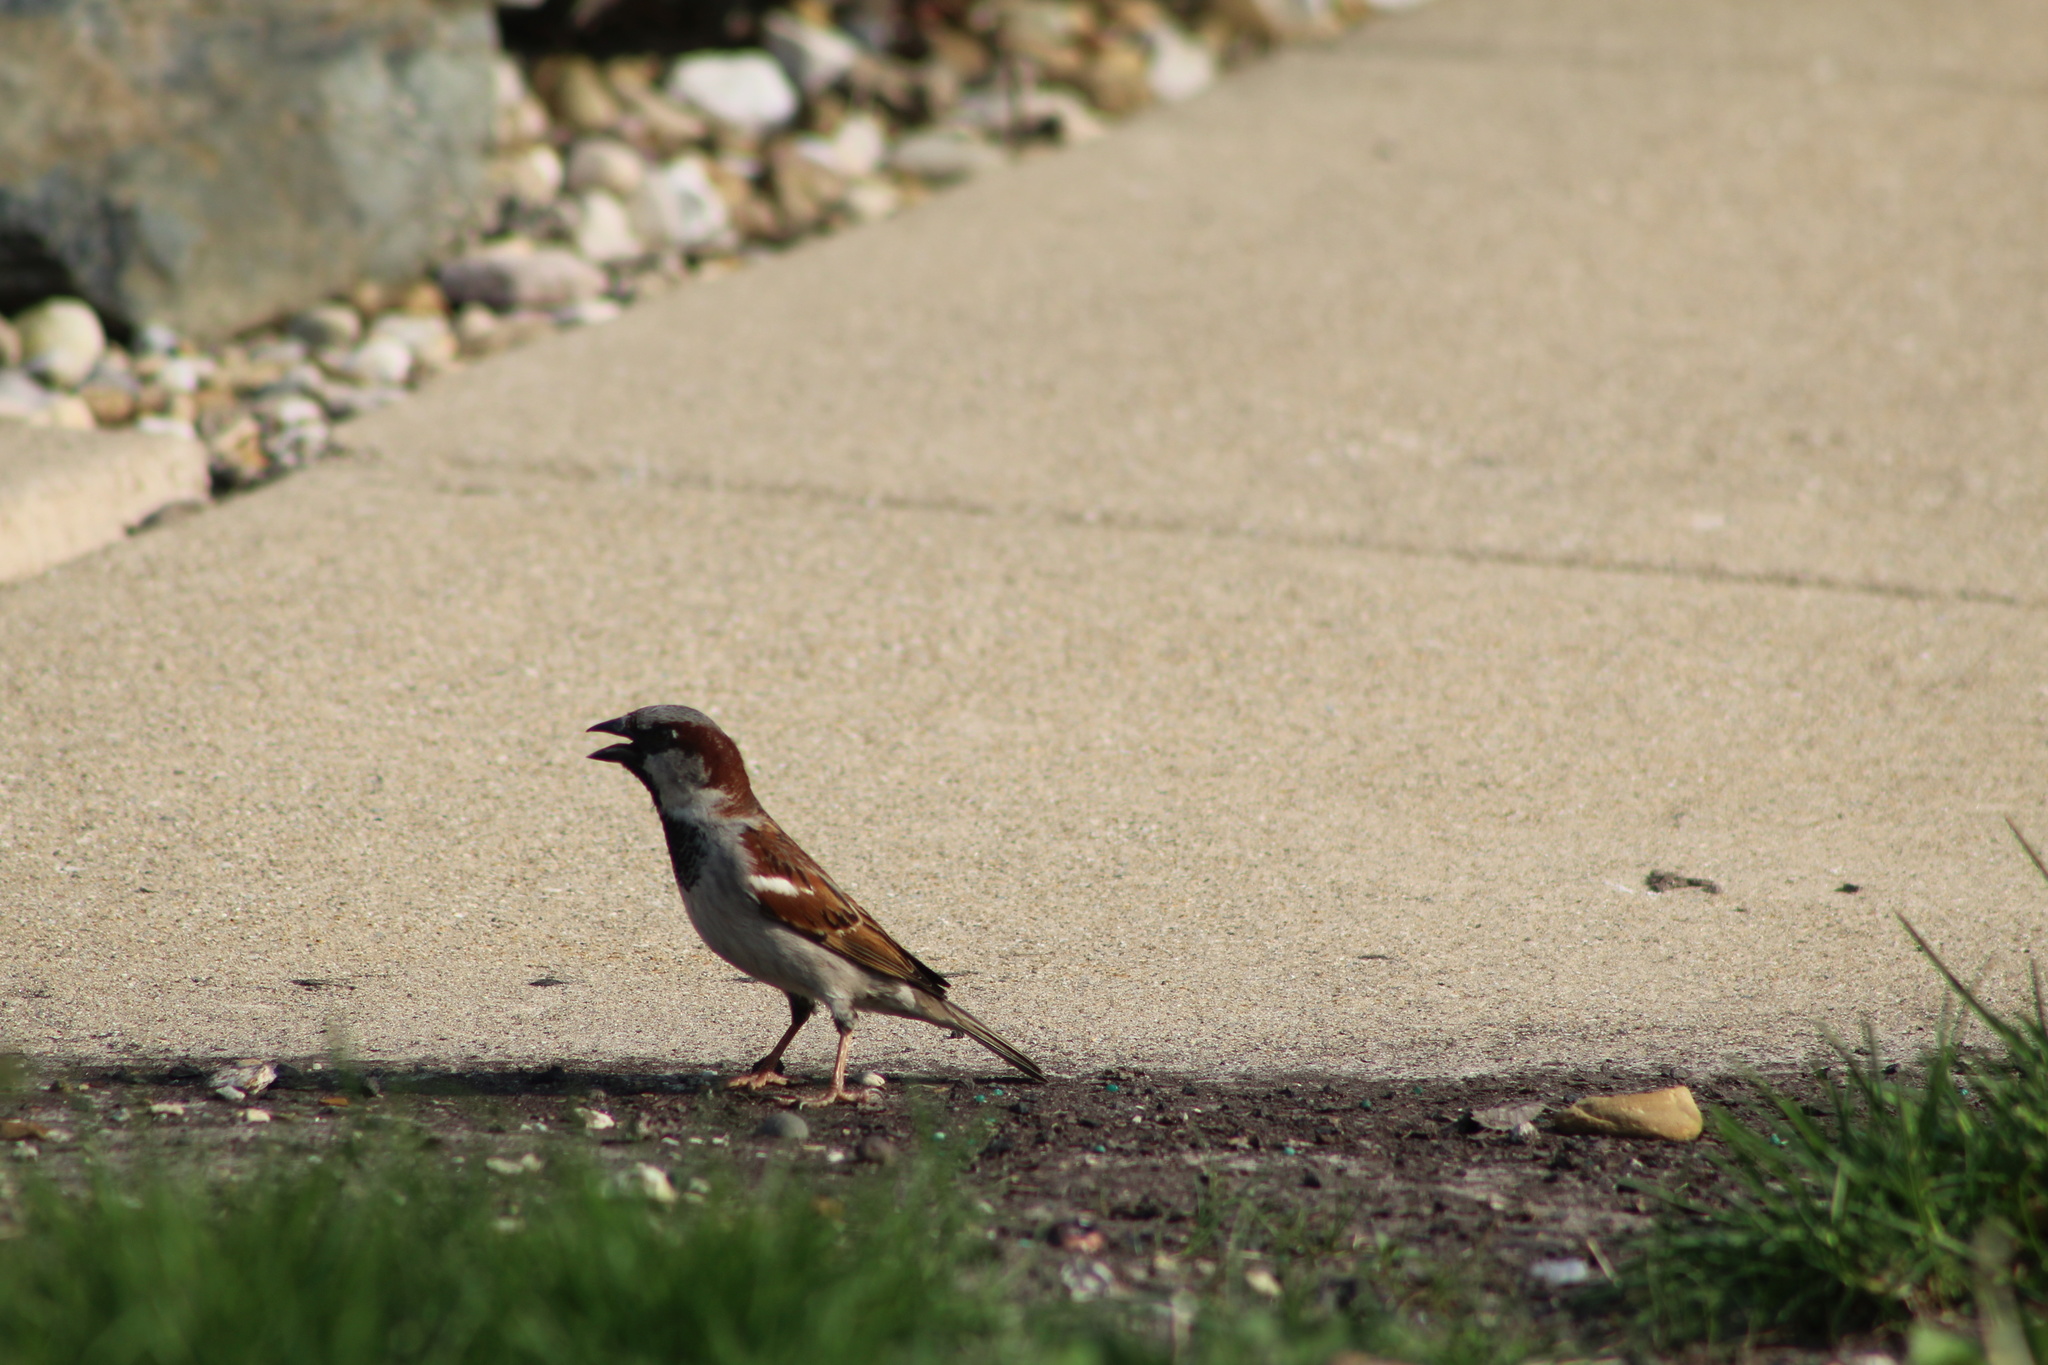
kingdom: Animalia
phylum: Chordata
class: Aves
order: Passeriformes
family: Passeridae
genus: Passer
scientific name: Passer domesticus
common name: House sparrow
